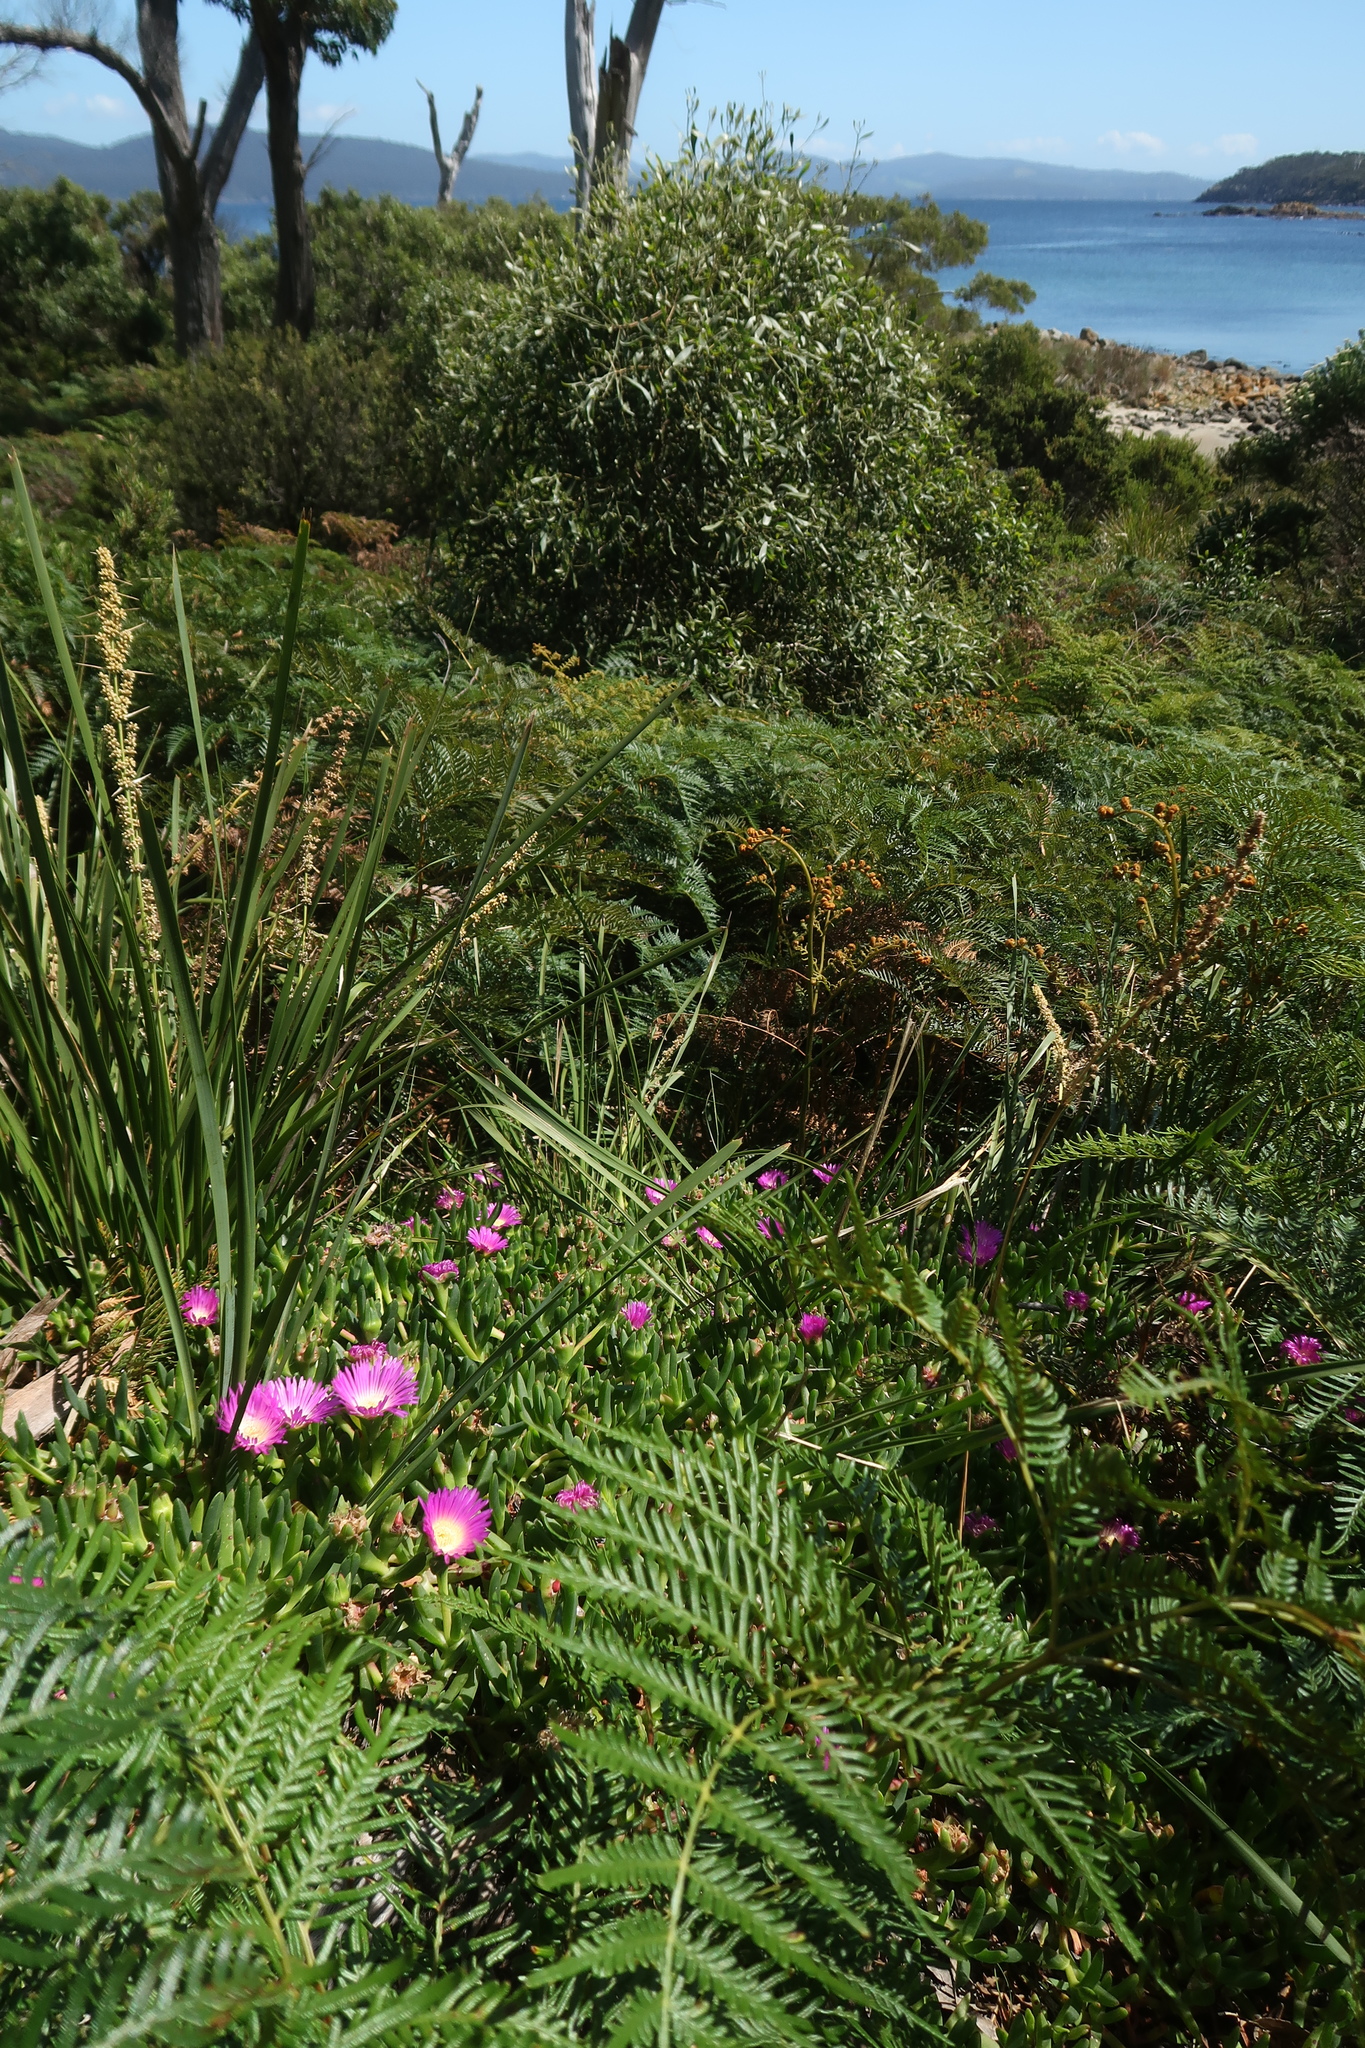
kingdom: Plantae
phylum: Tracheophyta
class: Magnoliopsida
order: Caryophyllales
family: Aizoaceae
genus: Carpobrotus
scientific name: Carpobrotus rossii
